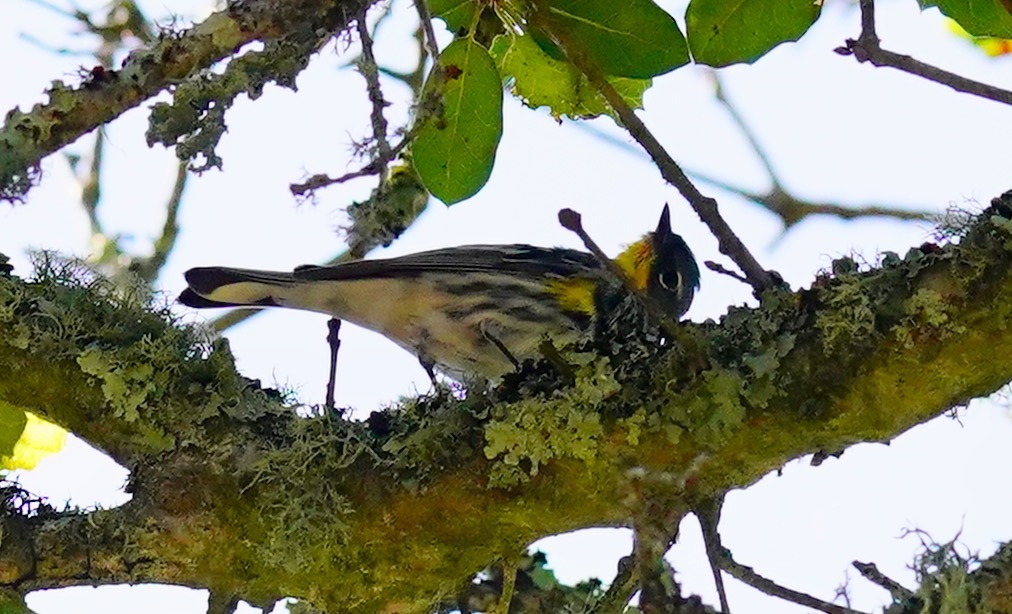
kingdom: Animalia
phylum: Chordata
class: Aves
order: Passeriformes
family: Parulidae
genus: Setophaga
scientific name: Setophaga coronata
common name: Myrtle warbler
